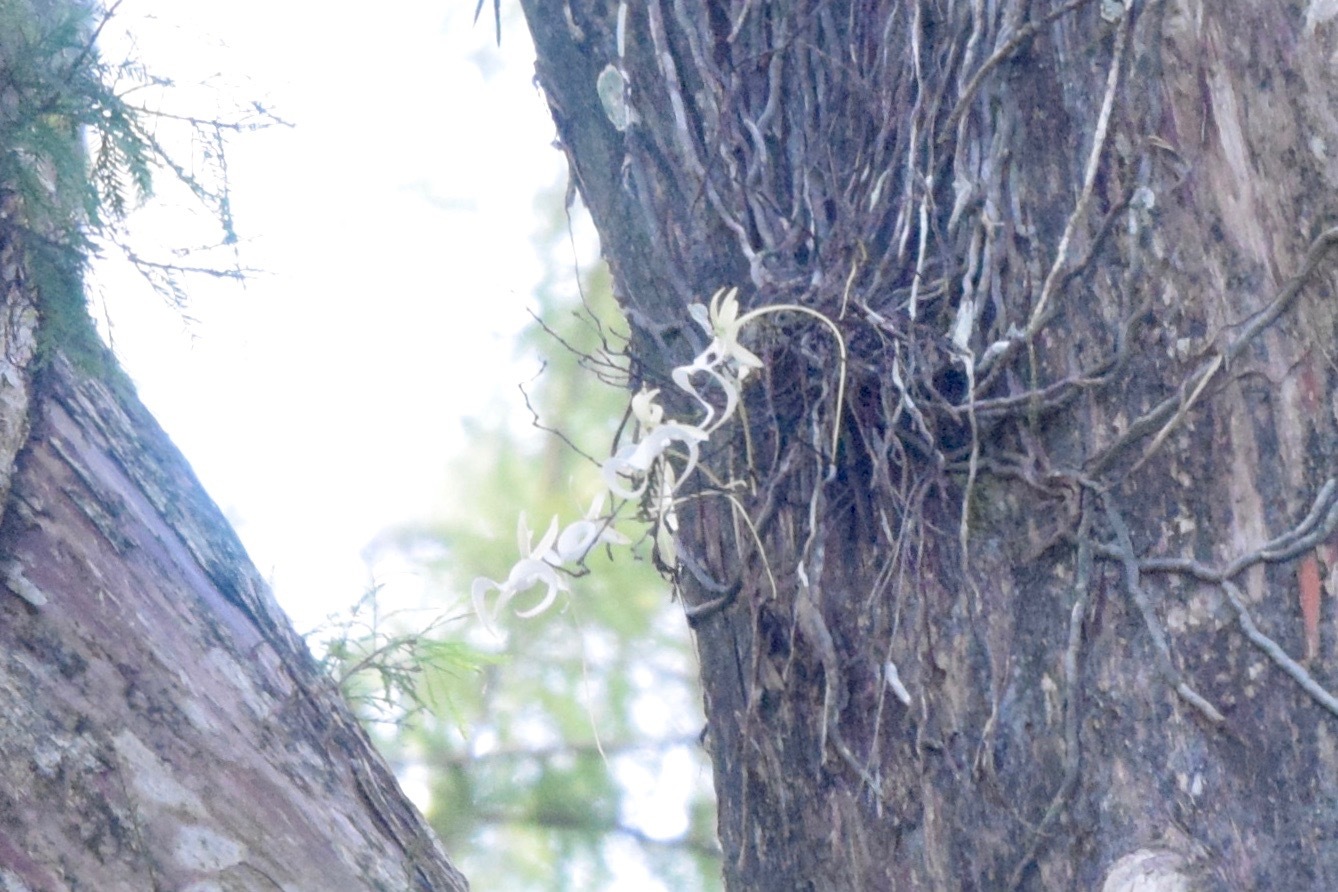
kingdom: Plantae
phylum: Tracheophyta
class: Liliopsida
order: Asparagales
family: Orchidaceae
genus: Dendrophylax
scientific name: Dendrophylax lindenii
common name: Palmpolly
